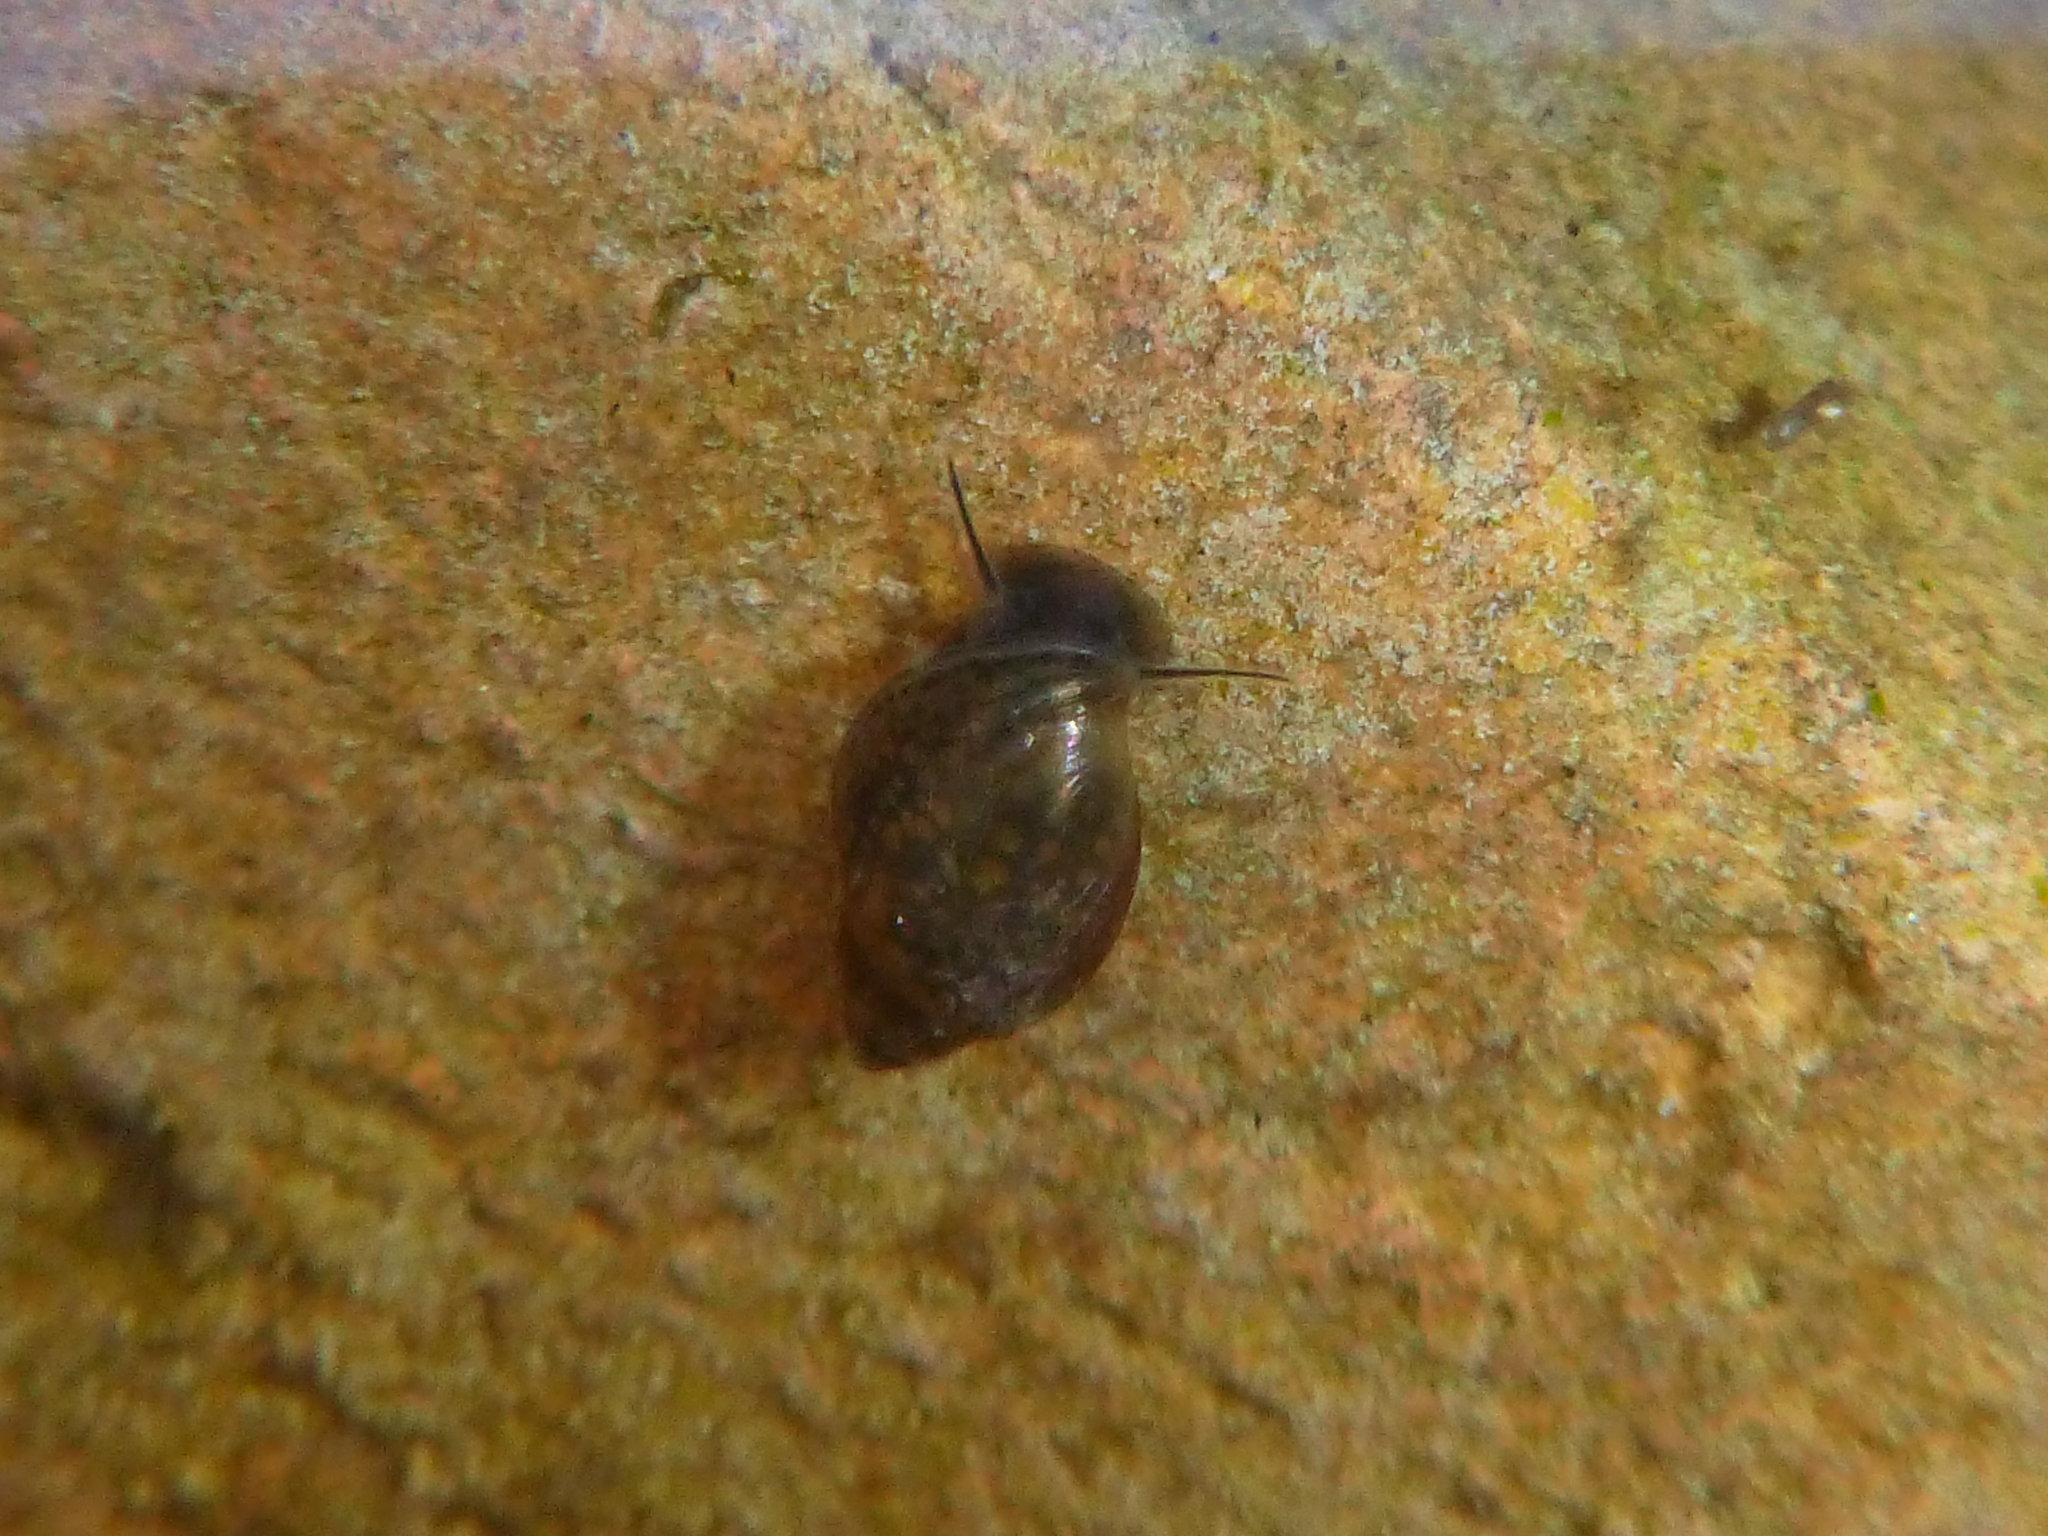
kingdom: Animalia
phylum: Mollusca
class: Gastropoda
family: Physidae
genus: Physella
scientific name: Physella acuta
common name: European physa
